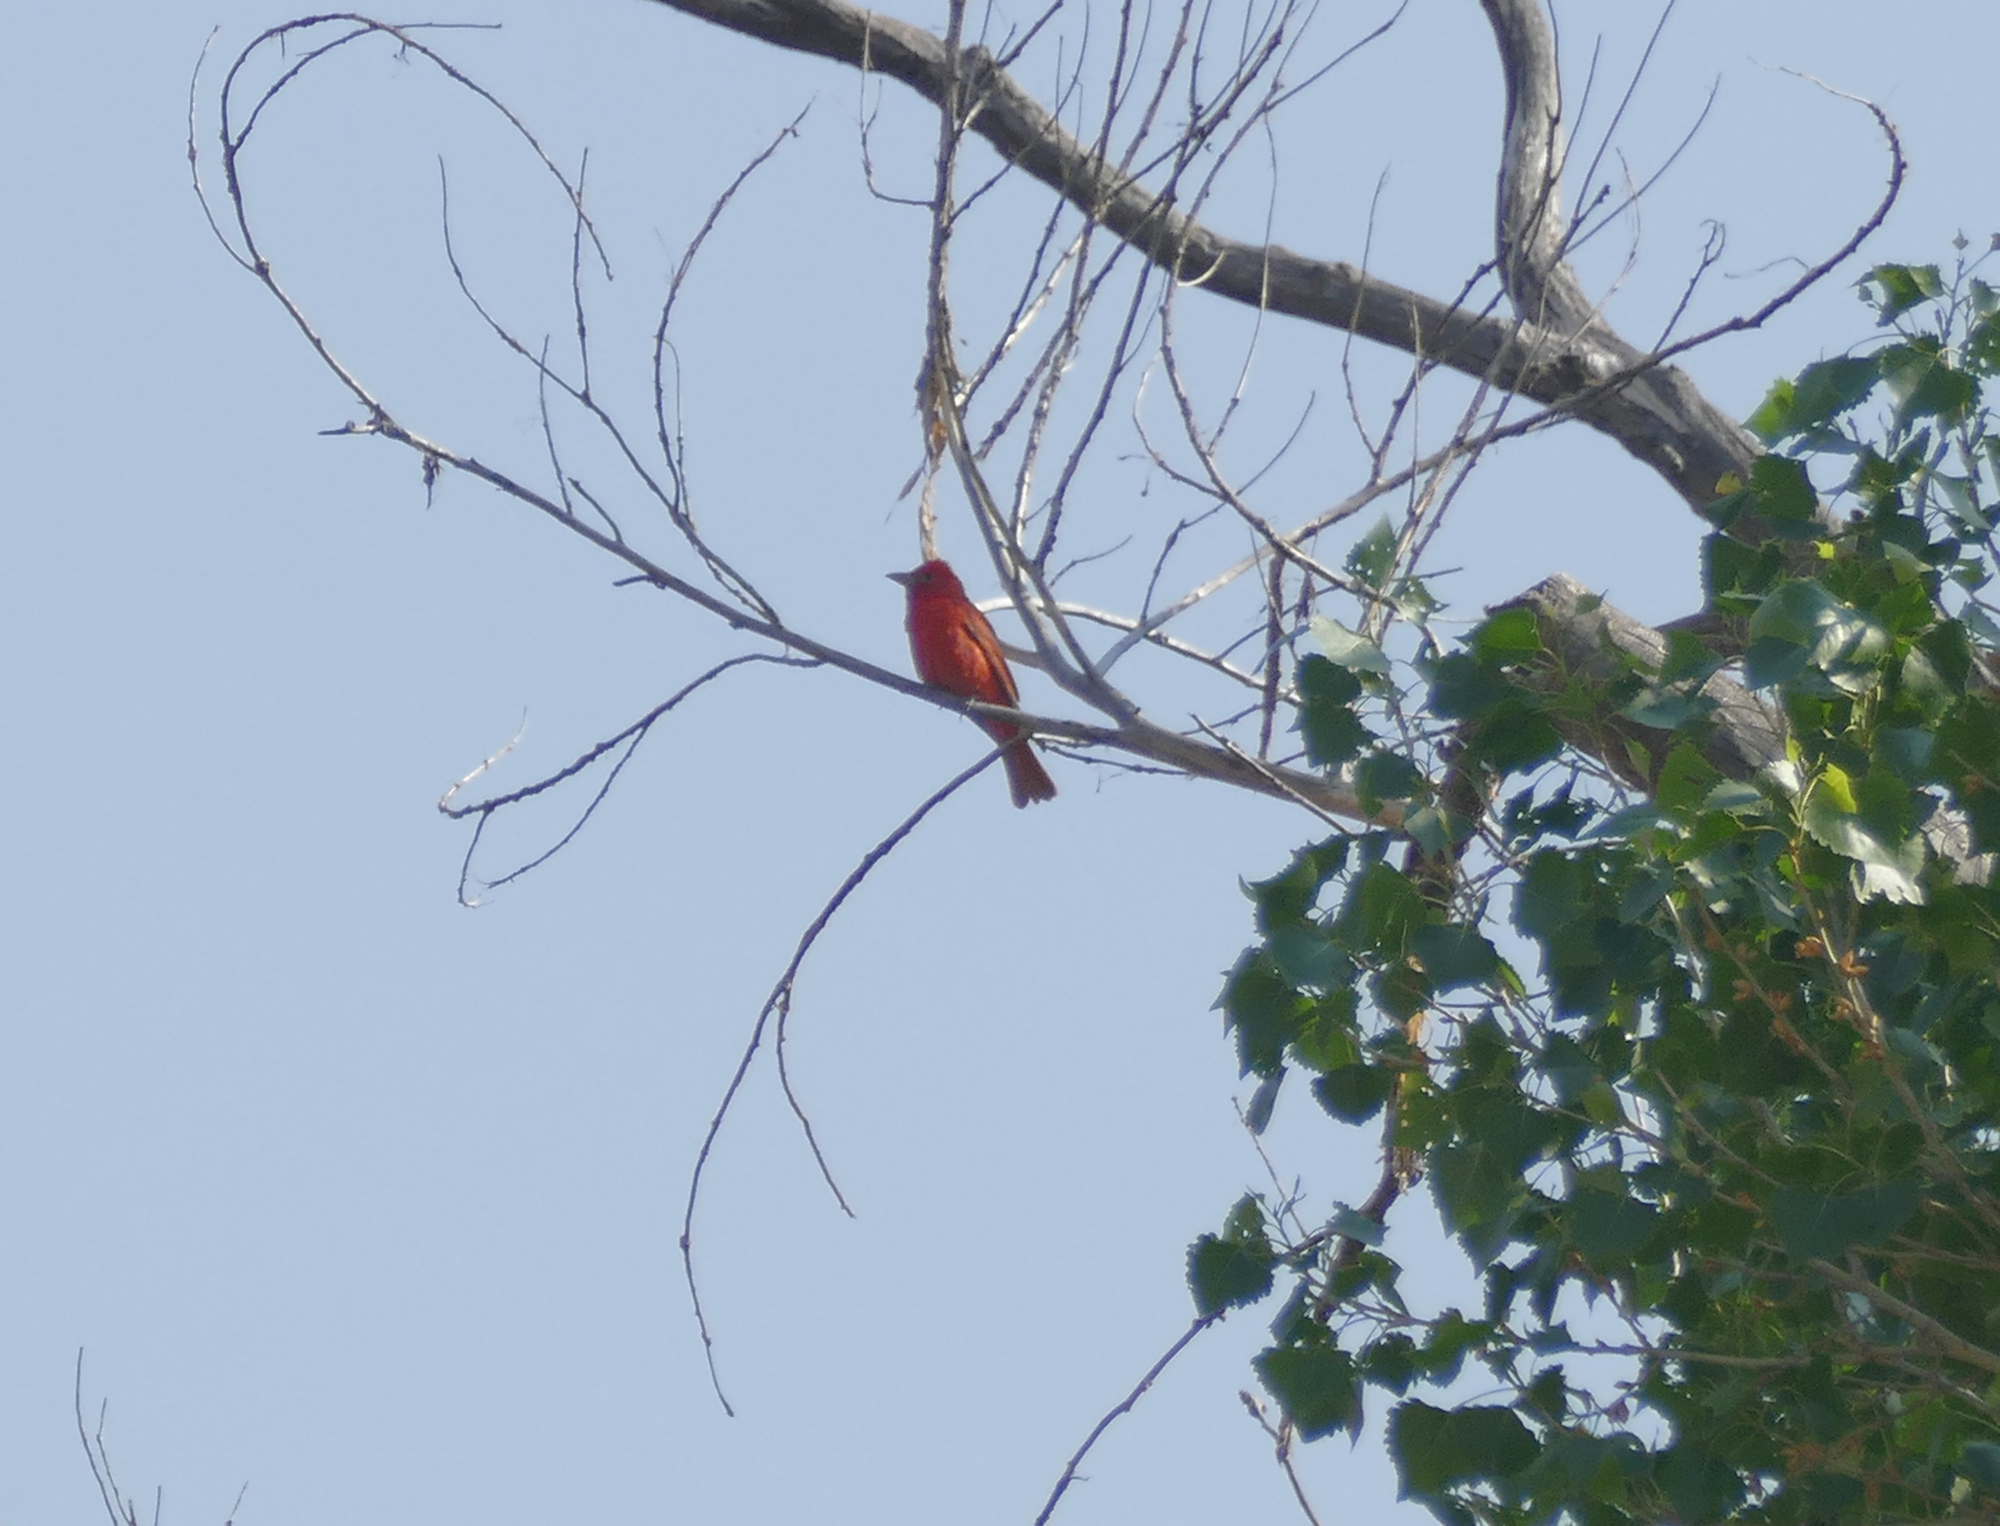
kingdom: Animalia
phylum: Chordata
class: Aves
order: Passeriformes
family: Cardinalidae
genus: Piranga
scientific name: Piranga rubra
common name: Summer tanager
